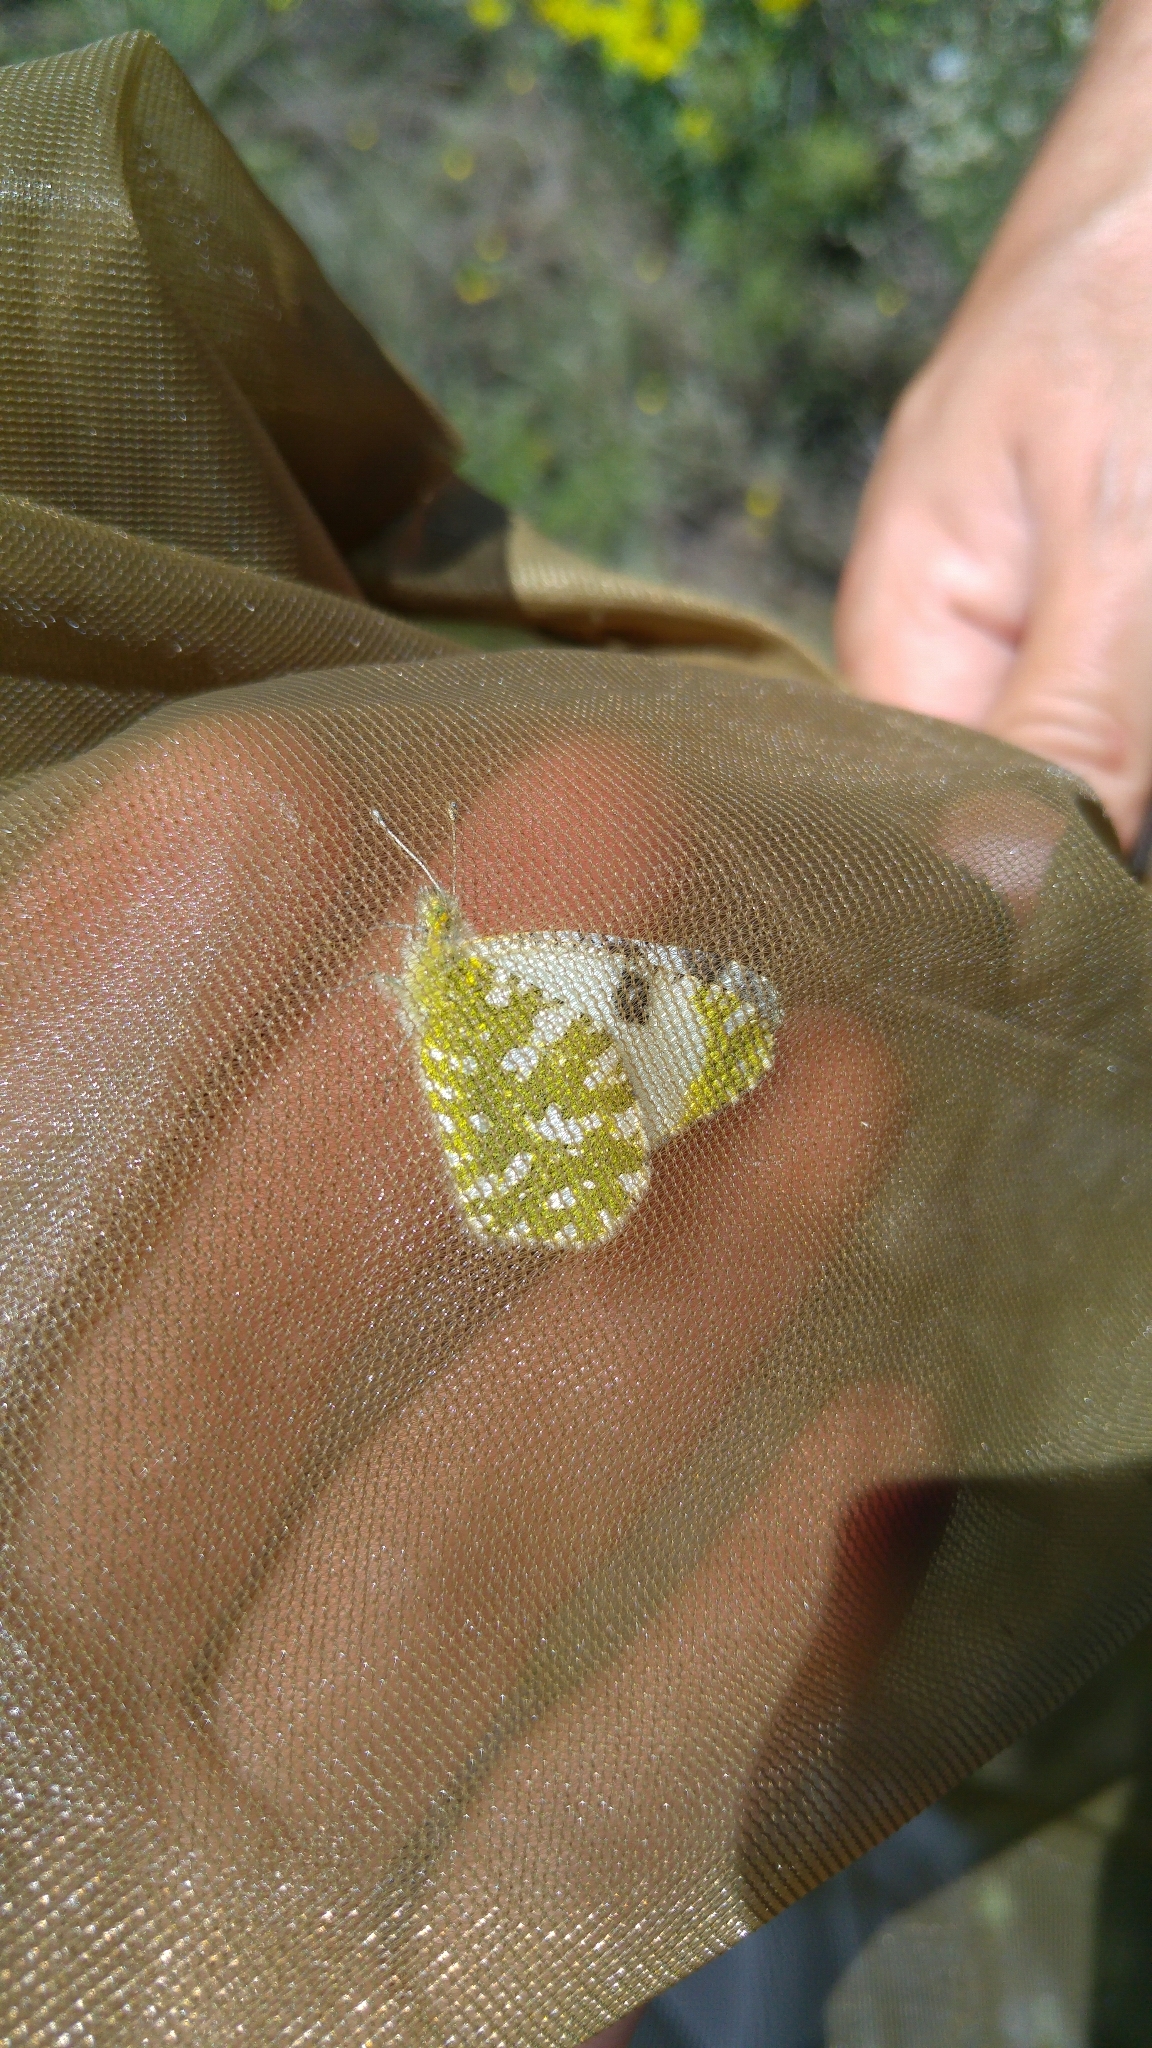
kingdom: Animalia
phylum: Arthropoda
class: Insecta
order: Lepidoptera
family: Pieridae
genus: Euchloe
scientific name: Euchloe crameri
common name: Western dappled white
